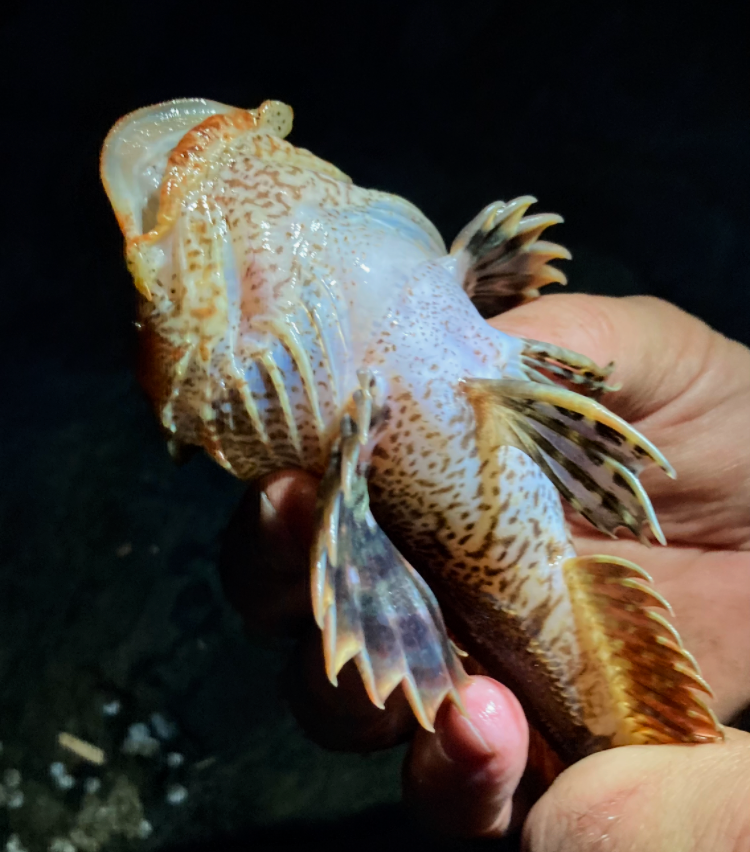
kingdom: Animalia
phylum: Chordata
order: Scorpaeniformes
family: Cottidae
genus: Hemilepidotus
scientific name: Hemilepidotus hemilepidotus
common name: Red irish lord
